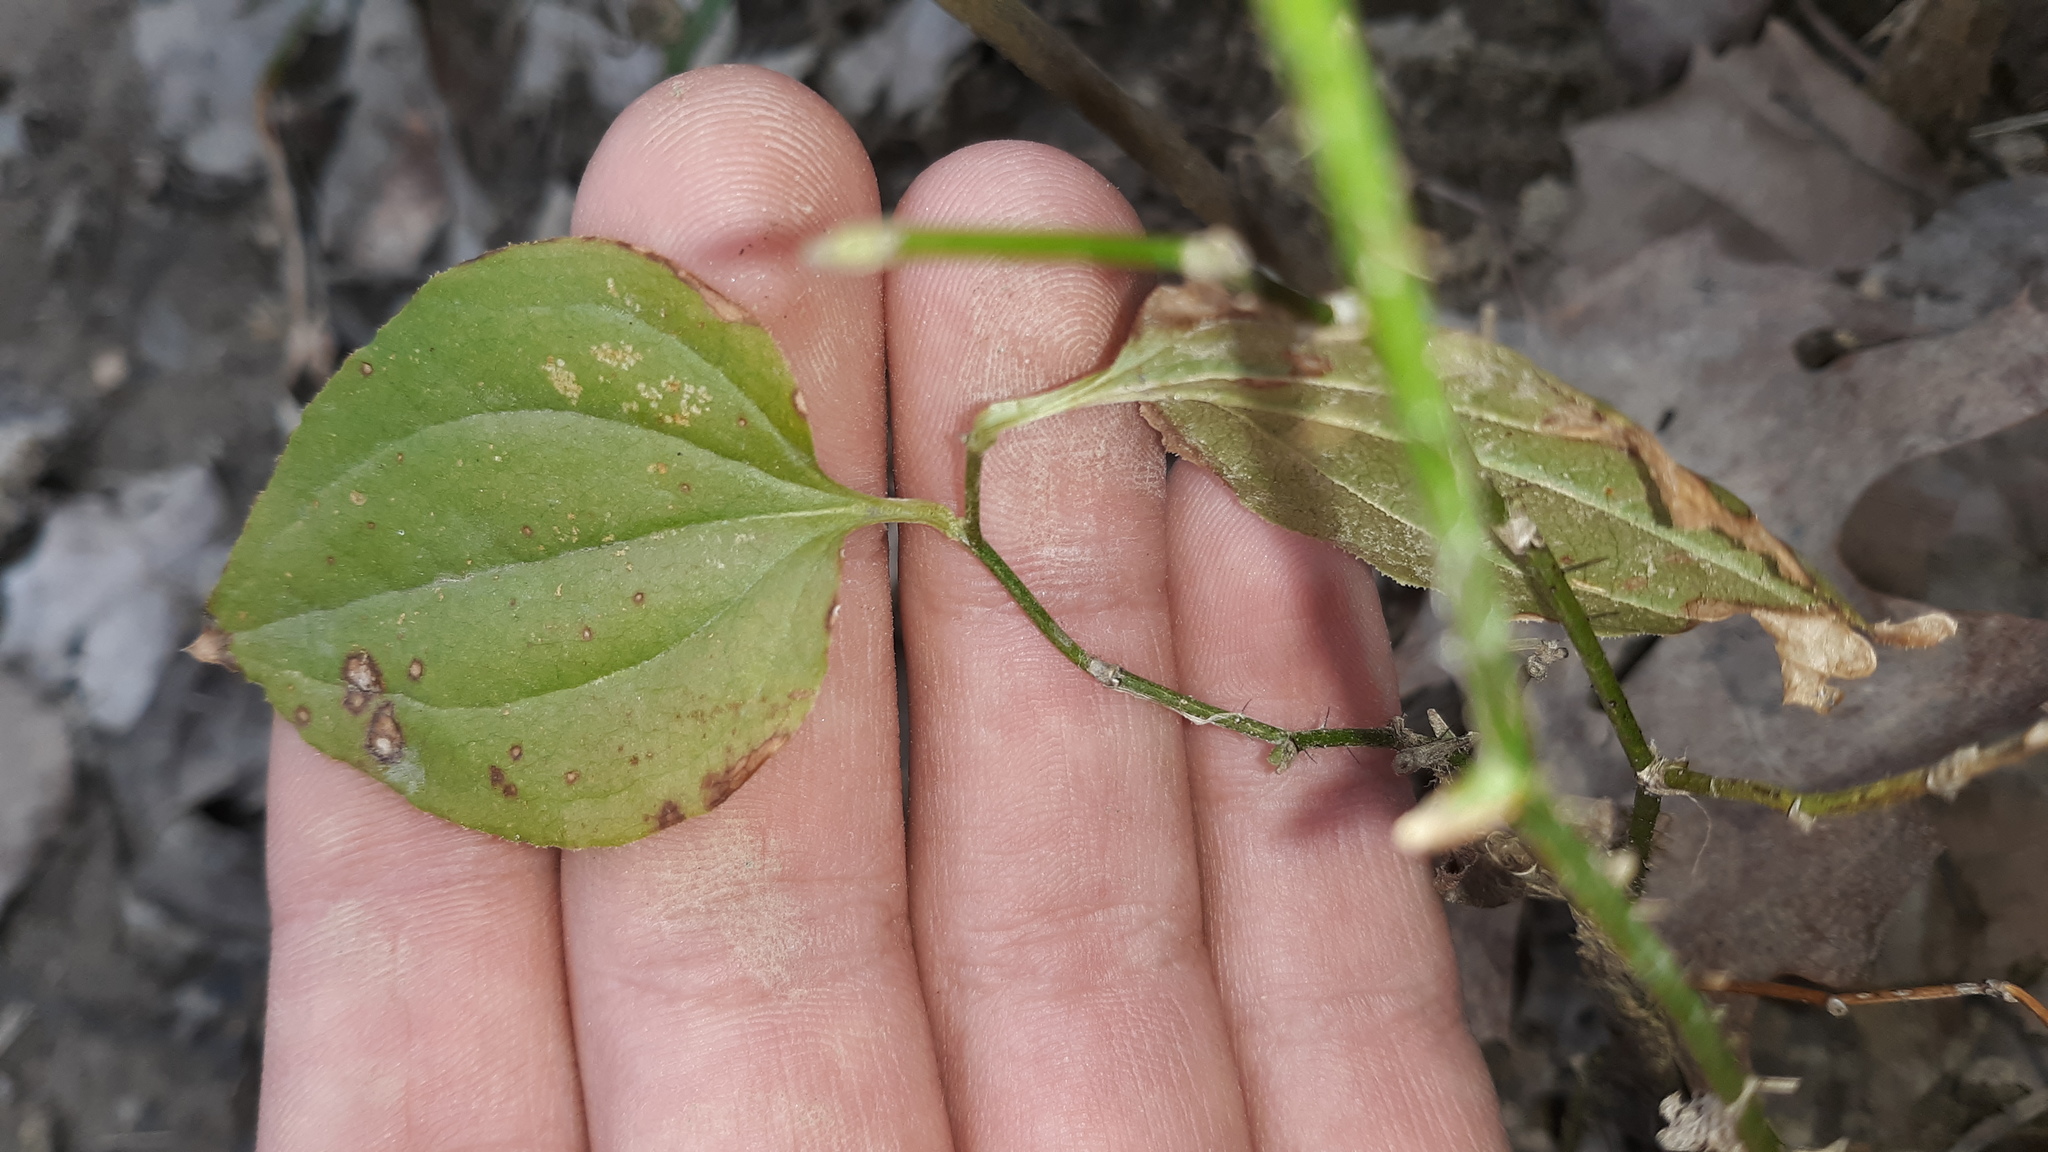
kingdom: Plantae
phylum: Tracheophyta
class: Liliopsida
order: Liliales
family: Smilacaceae
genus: Smilax
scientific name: Smilax tamnoides
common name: Hellfetter
